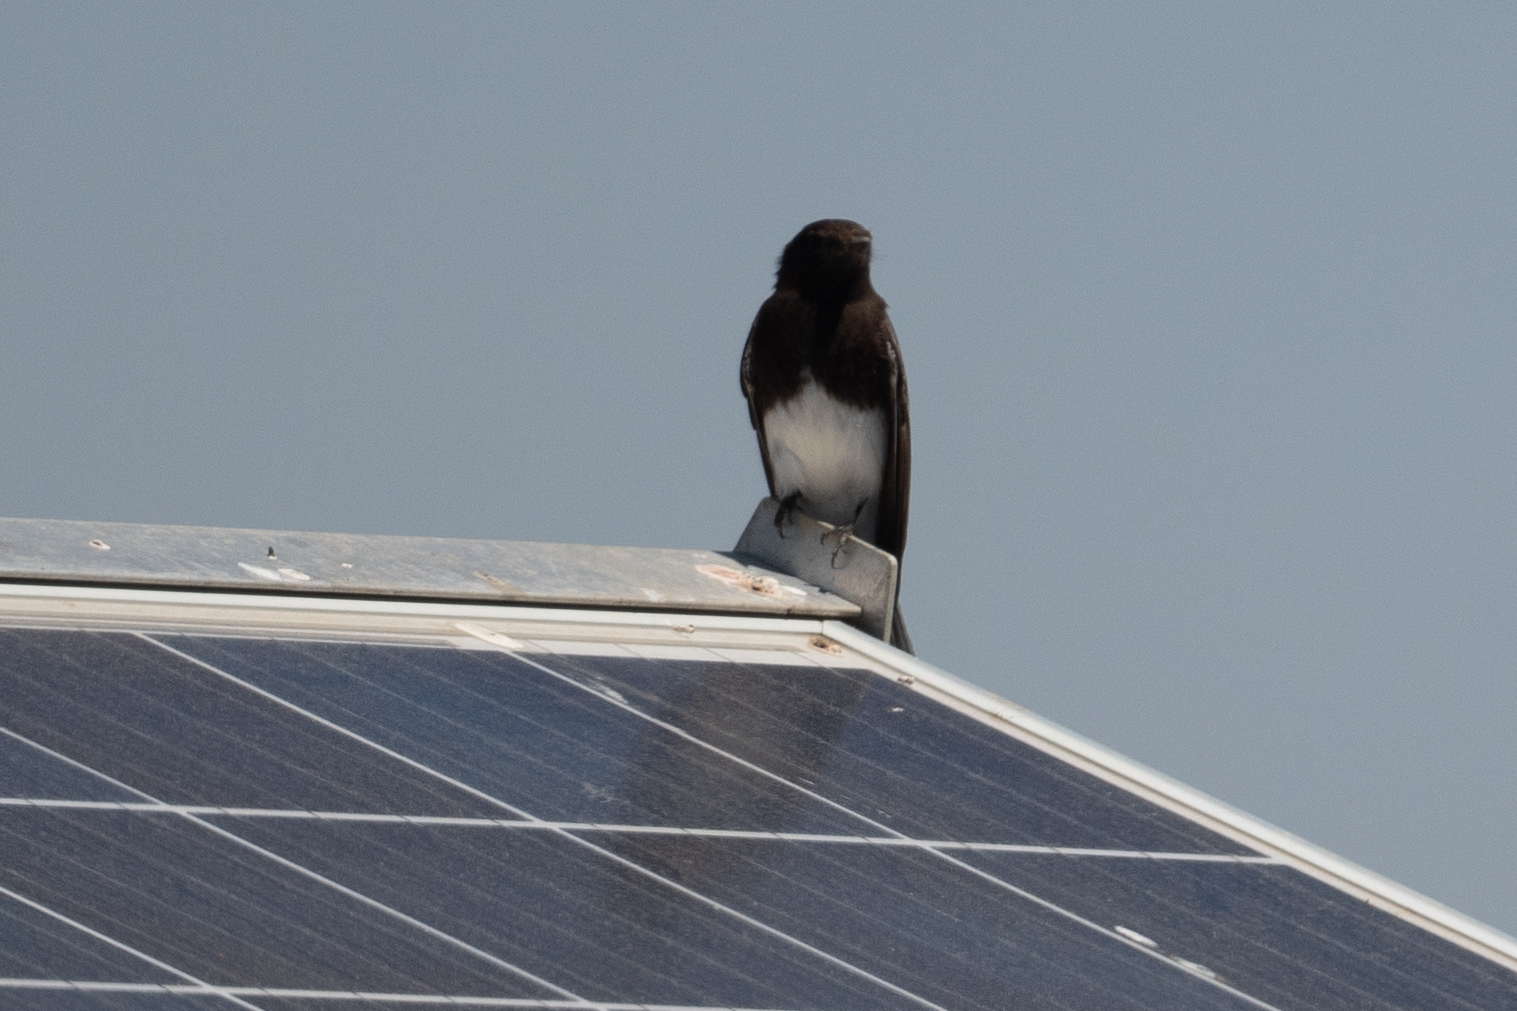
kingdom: Animalia
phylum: Chordata
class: Aves
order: Passeriformes
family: Tyrannidae
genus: Sayornis
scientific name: Sayornis nigricans
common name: Black phoebe
